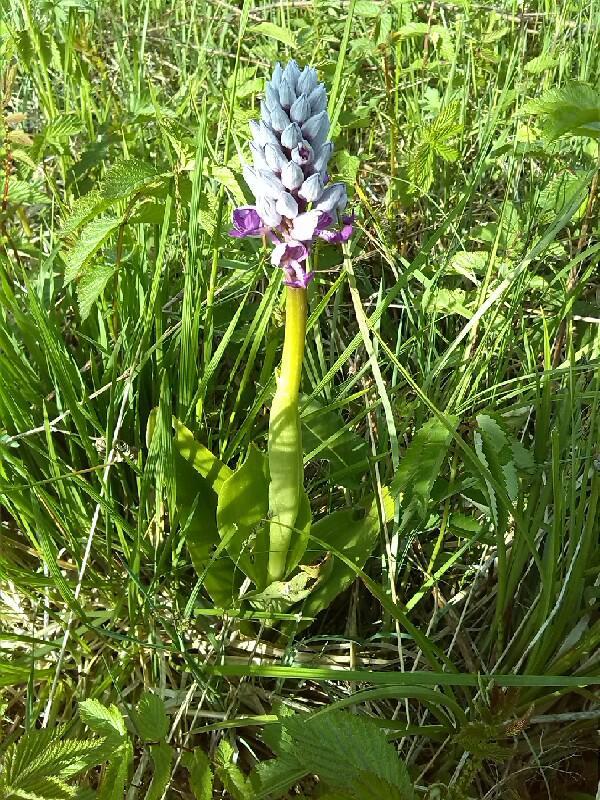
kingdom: Plantae
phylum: Tracheophyta
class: Liliopsida
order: Asparagales
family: Orchidaceae
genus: Orchis
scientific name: Orchis militaris
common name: Military orchid
